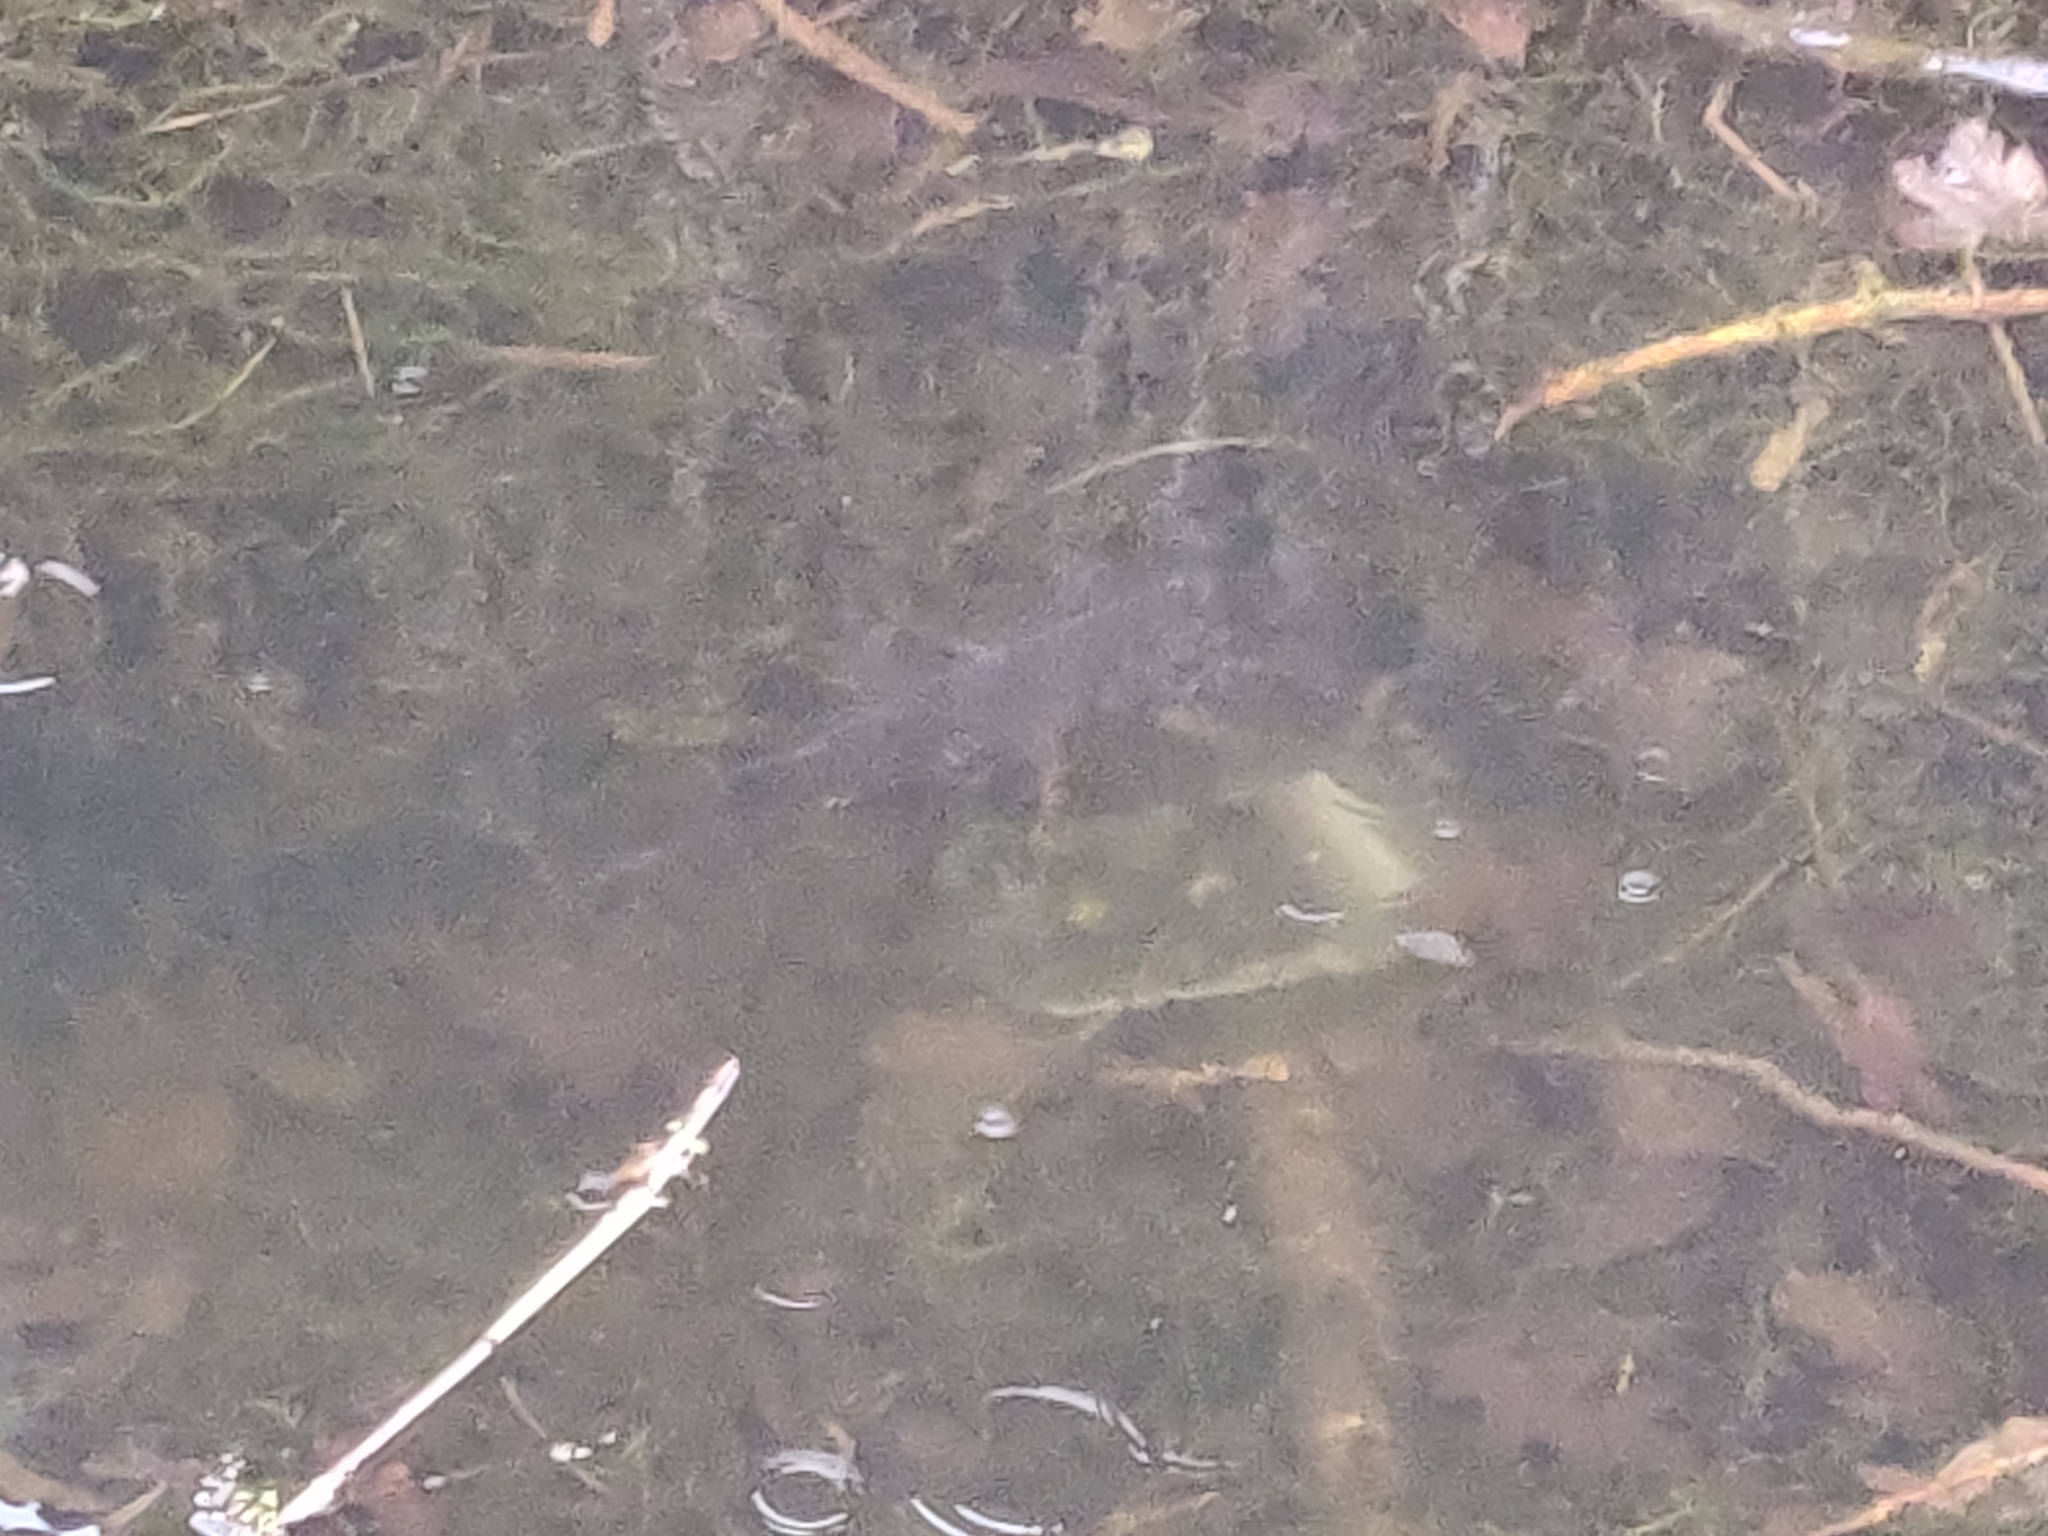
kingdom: Animalia
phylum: Chordata
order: Esociformes
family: Esocidae
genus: Esox
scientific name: Esox lucius
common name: Northern pike
